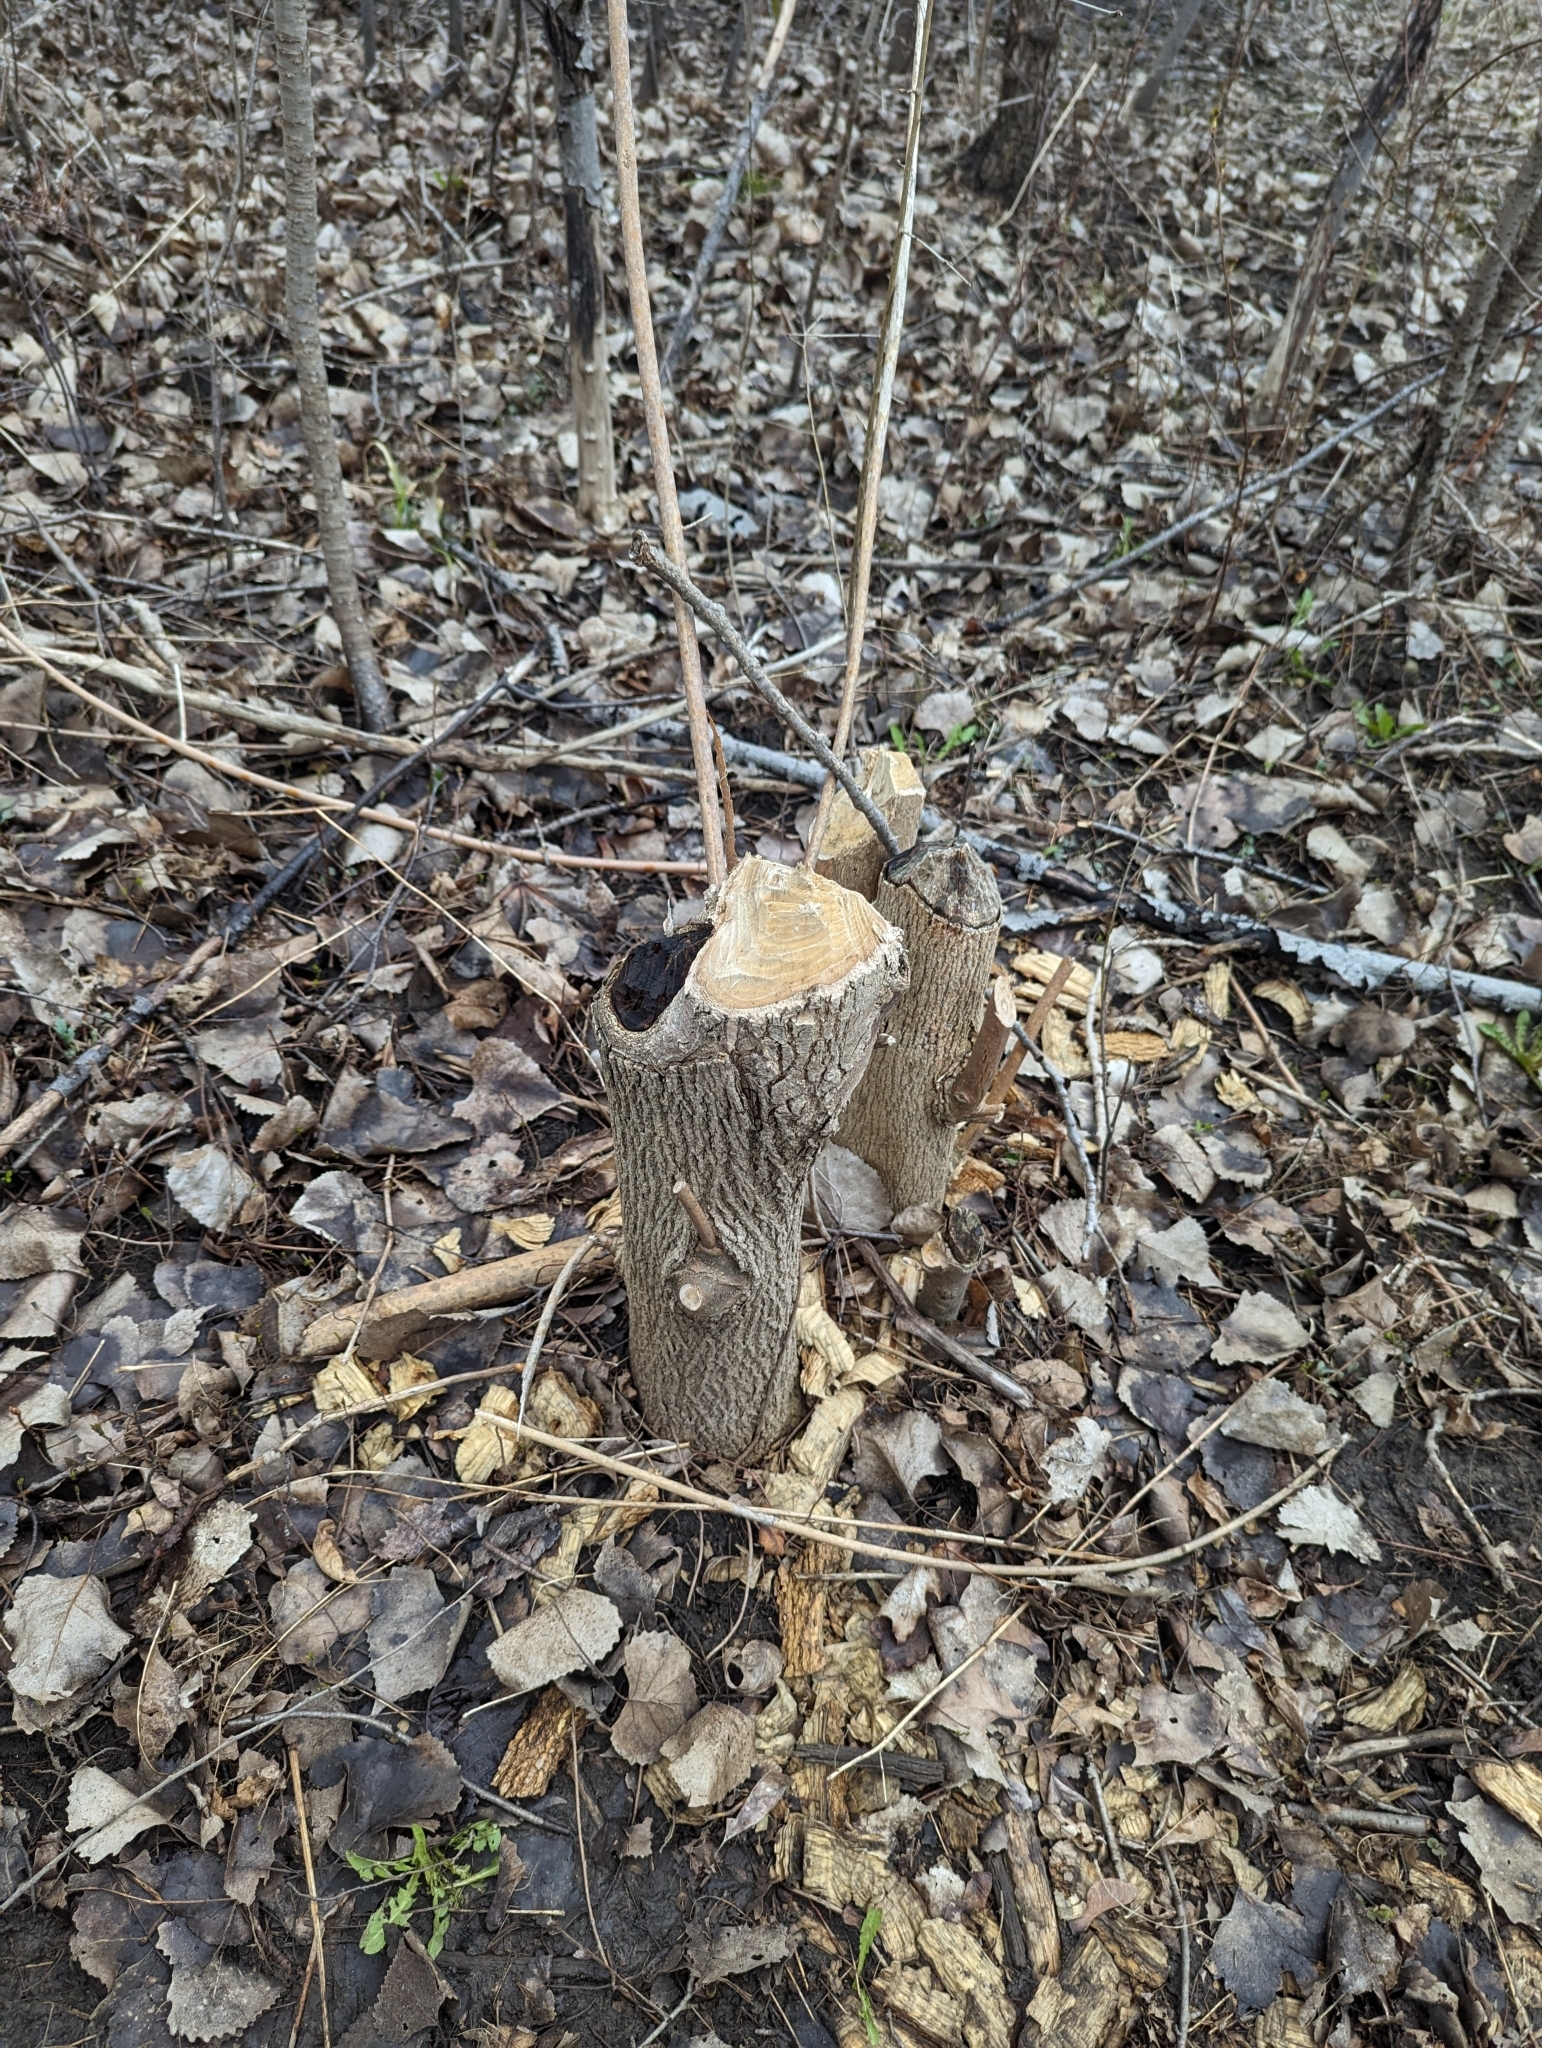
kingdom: Animalia
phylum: Chordata
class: Mammalia
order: Rodentia
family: Castoridae
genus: Castor
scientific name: Castor canadensis
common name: American beaver
